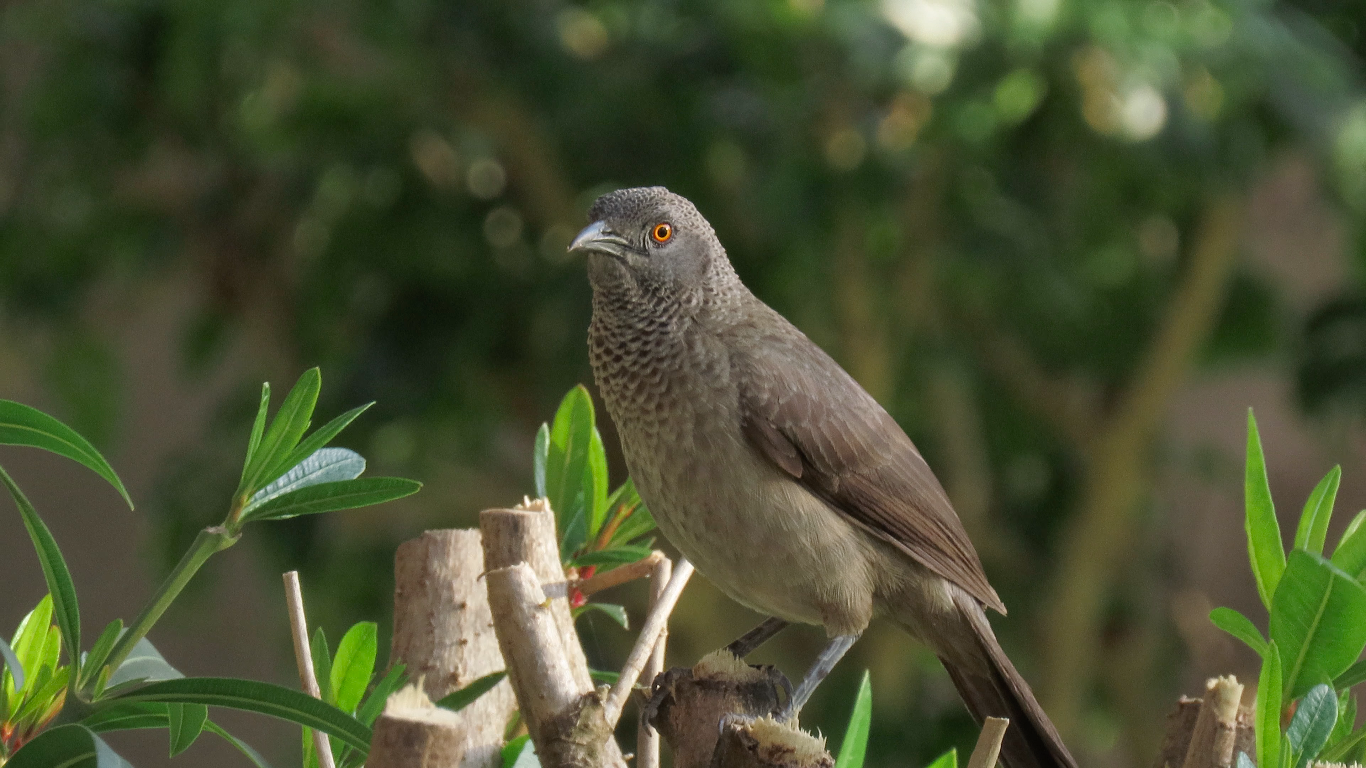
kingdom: Animalia
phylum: Chordata
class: Aves
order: Passeriformes
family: Leiothrichidae
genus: Turdoides
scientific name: Turdoides plebejus
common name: Brown babbler
